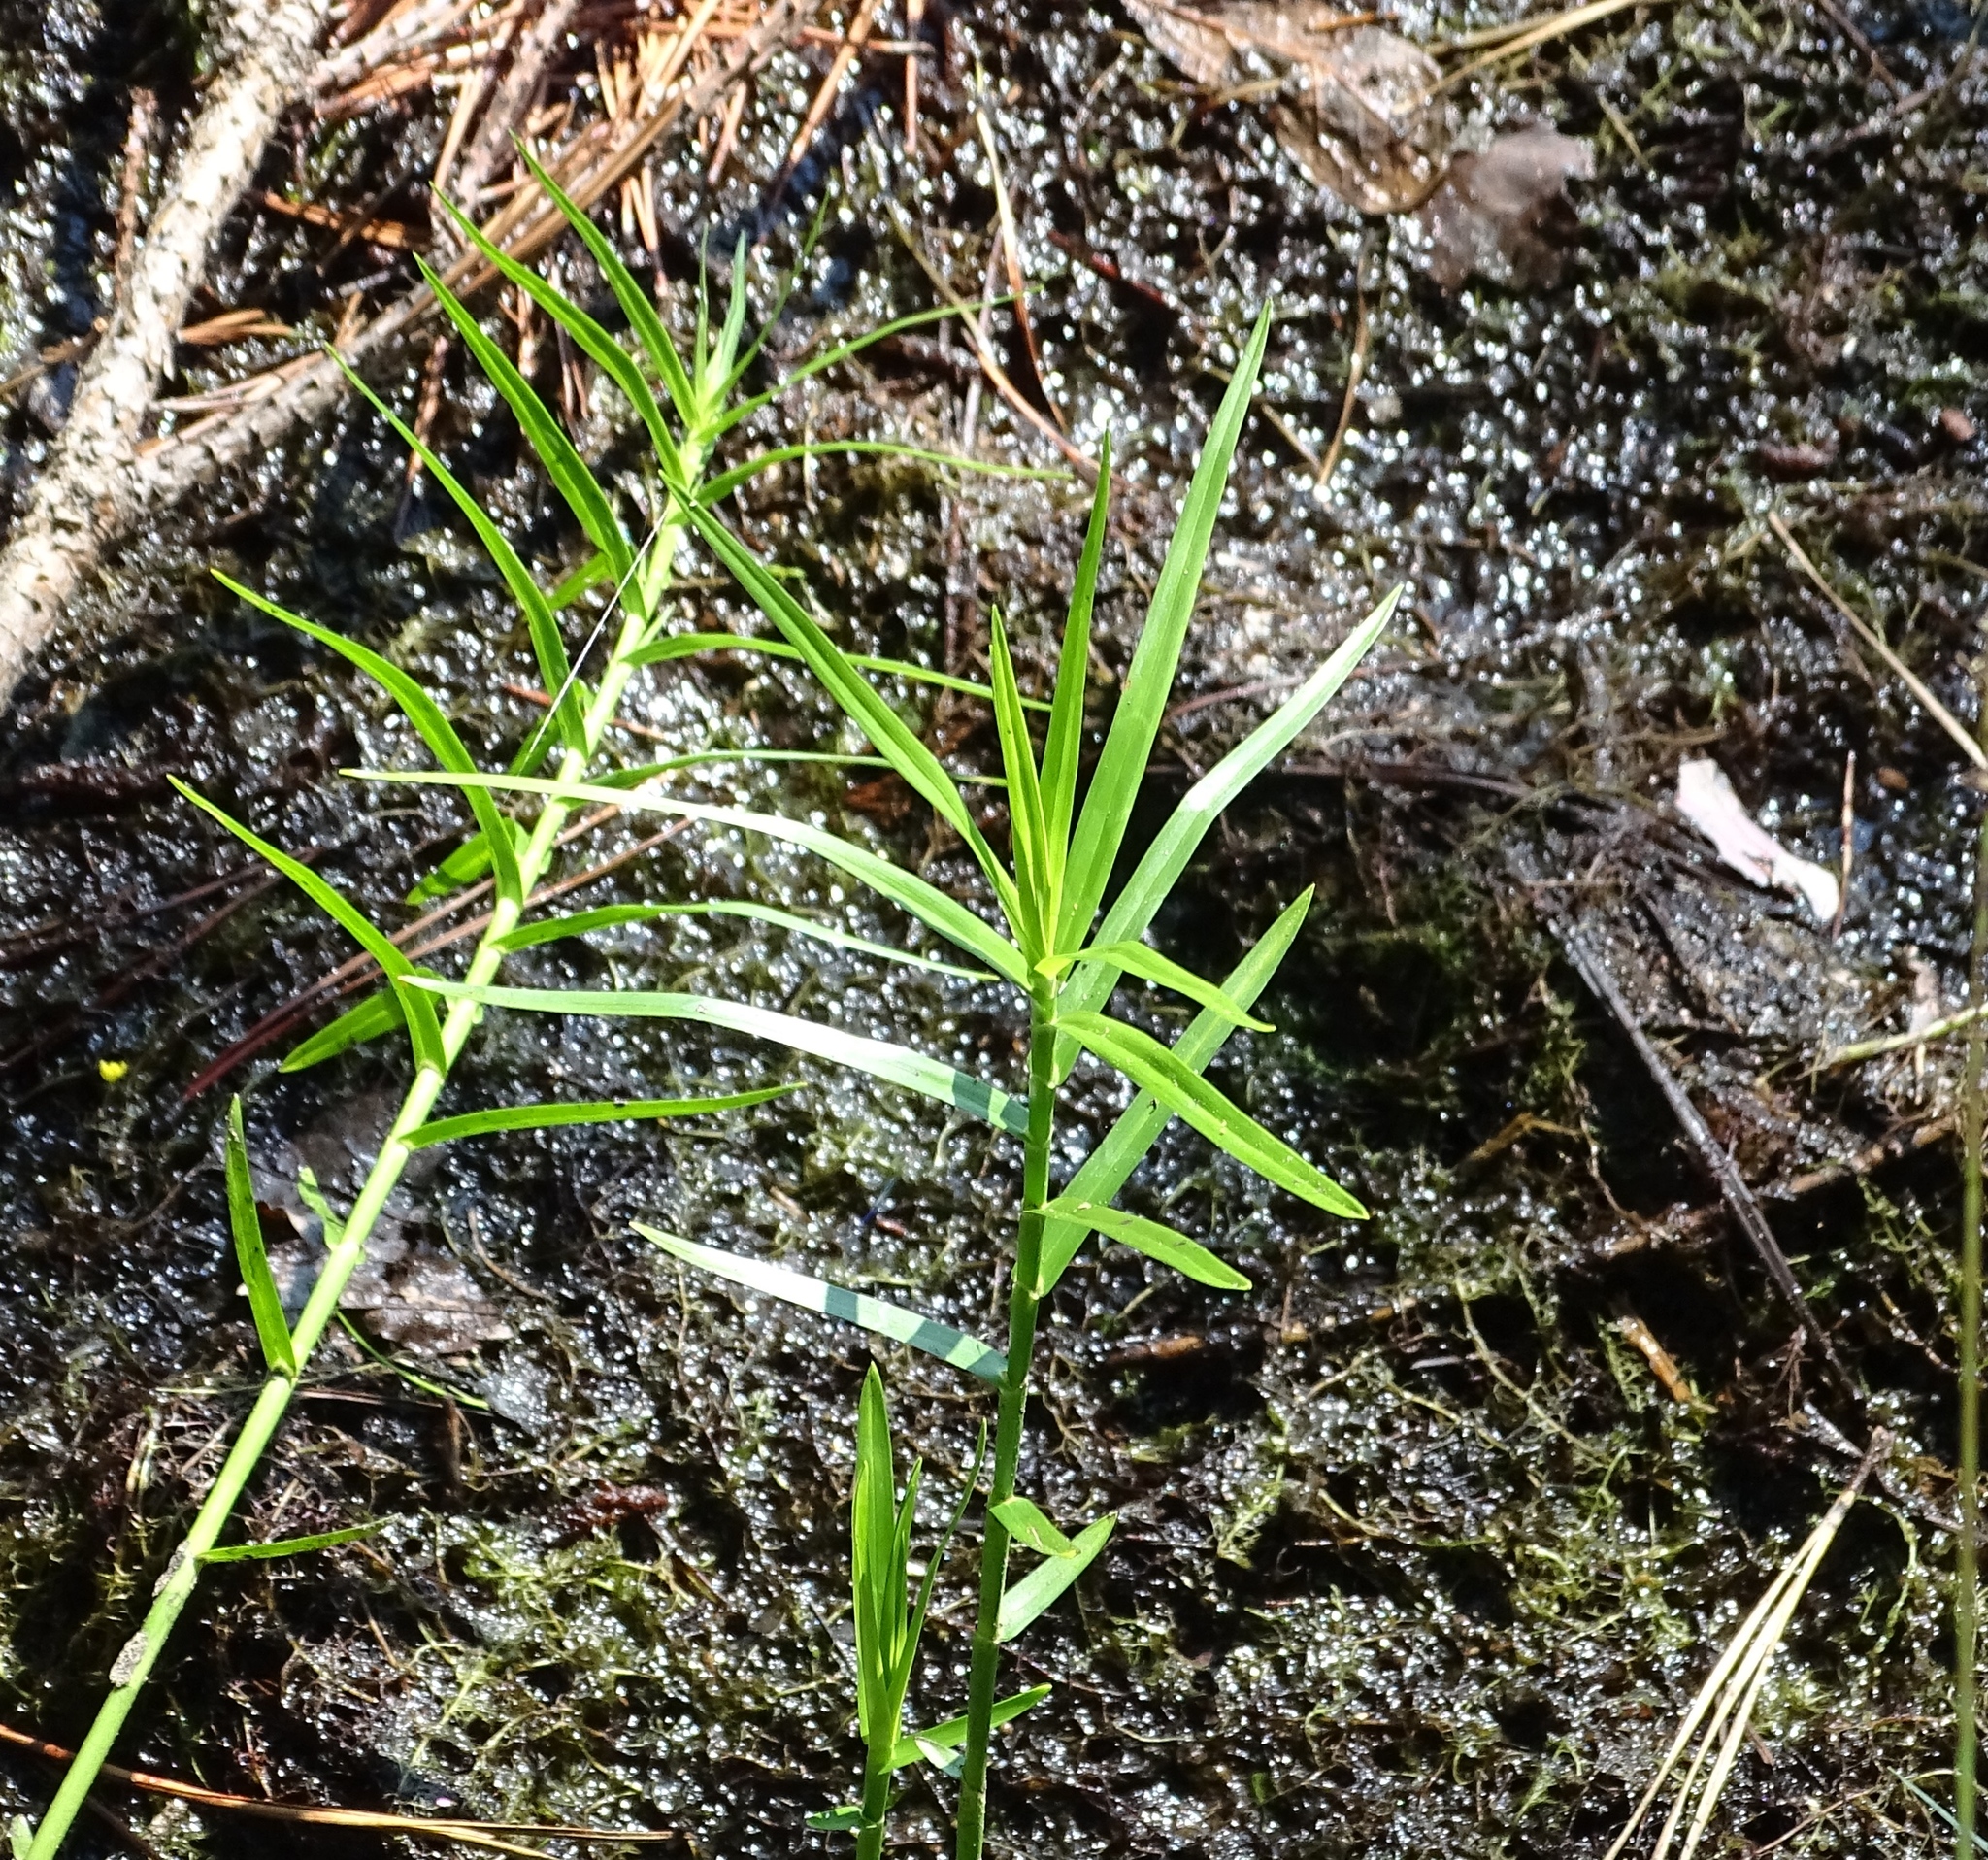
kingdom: Plantae
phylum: Tracheophyta
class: Liliopsida
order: Poales
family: Cyperaceae
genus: Dulichium
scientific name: Dulichium arundinaceum
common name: Three-way sedge
